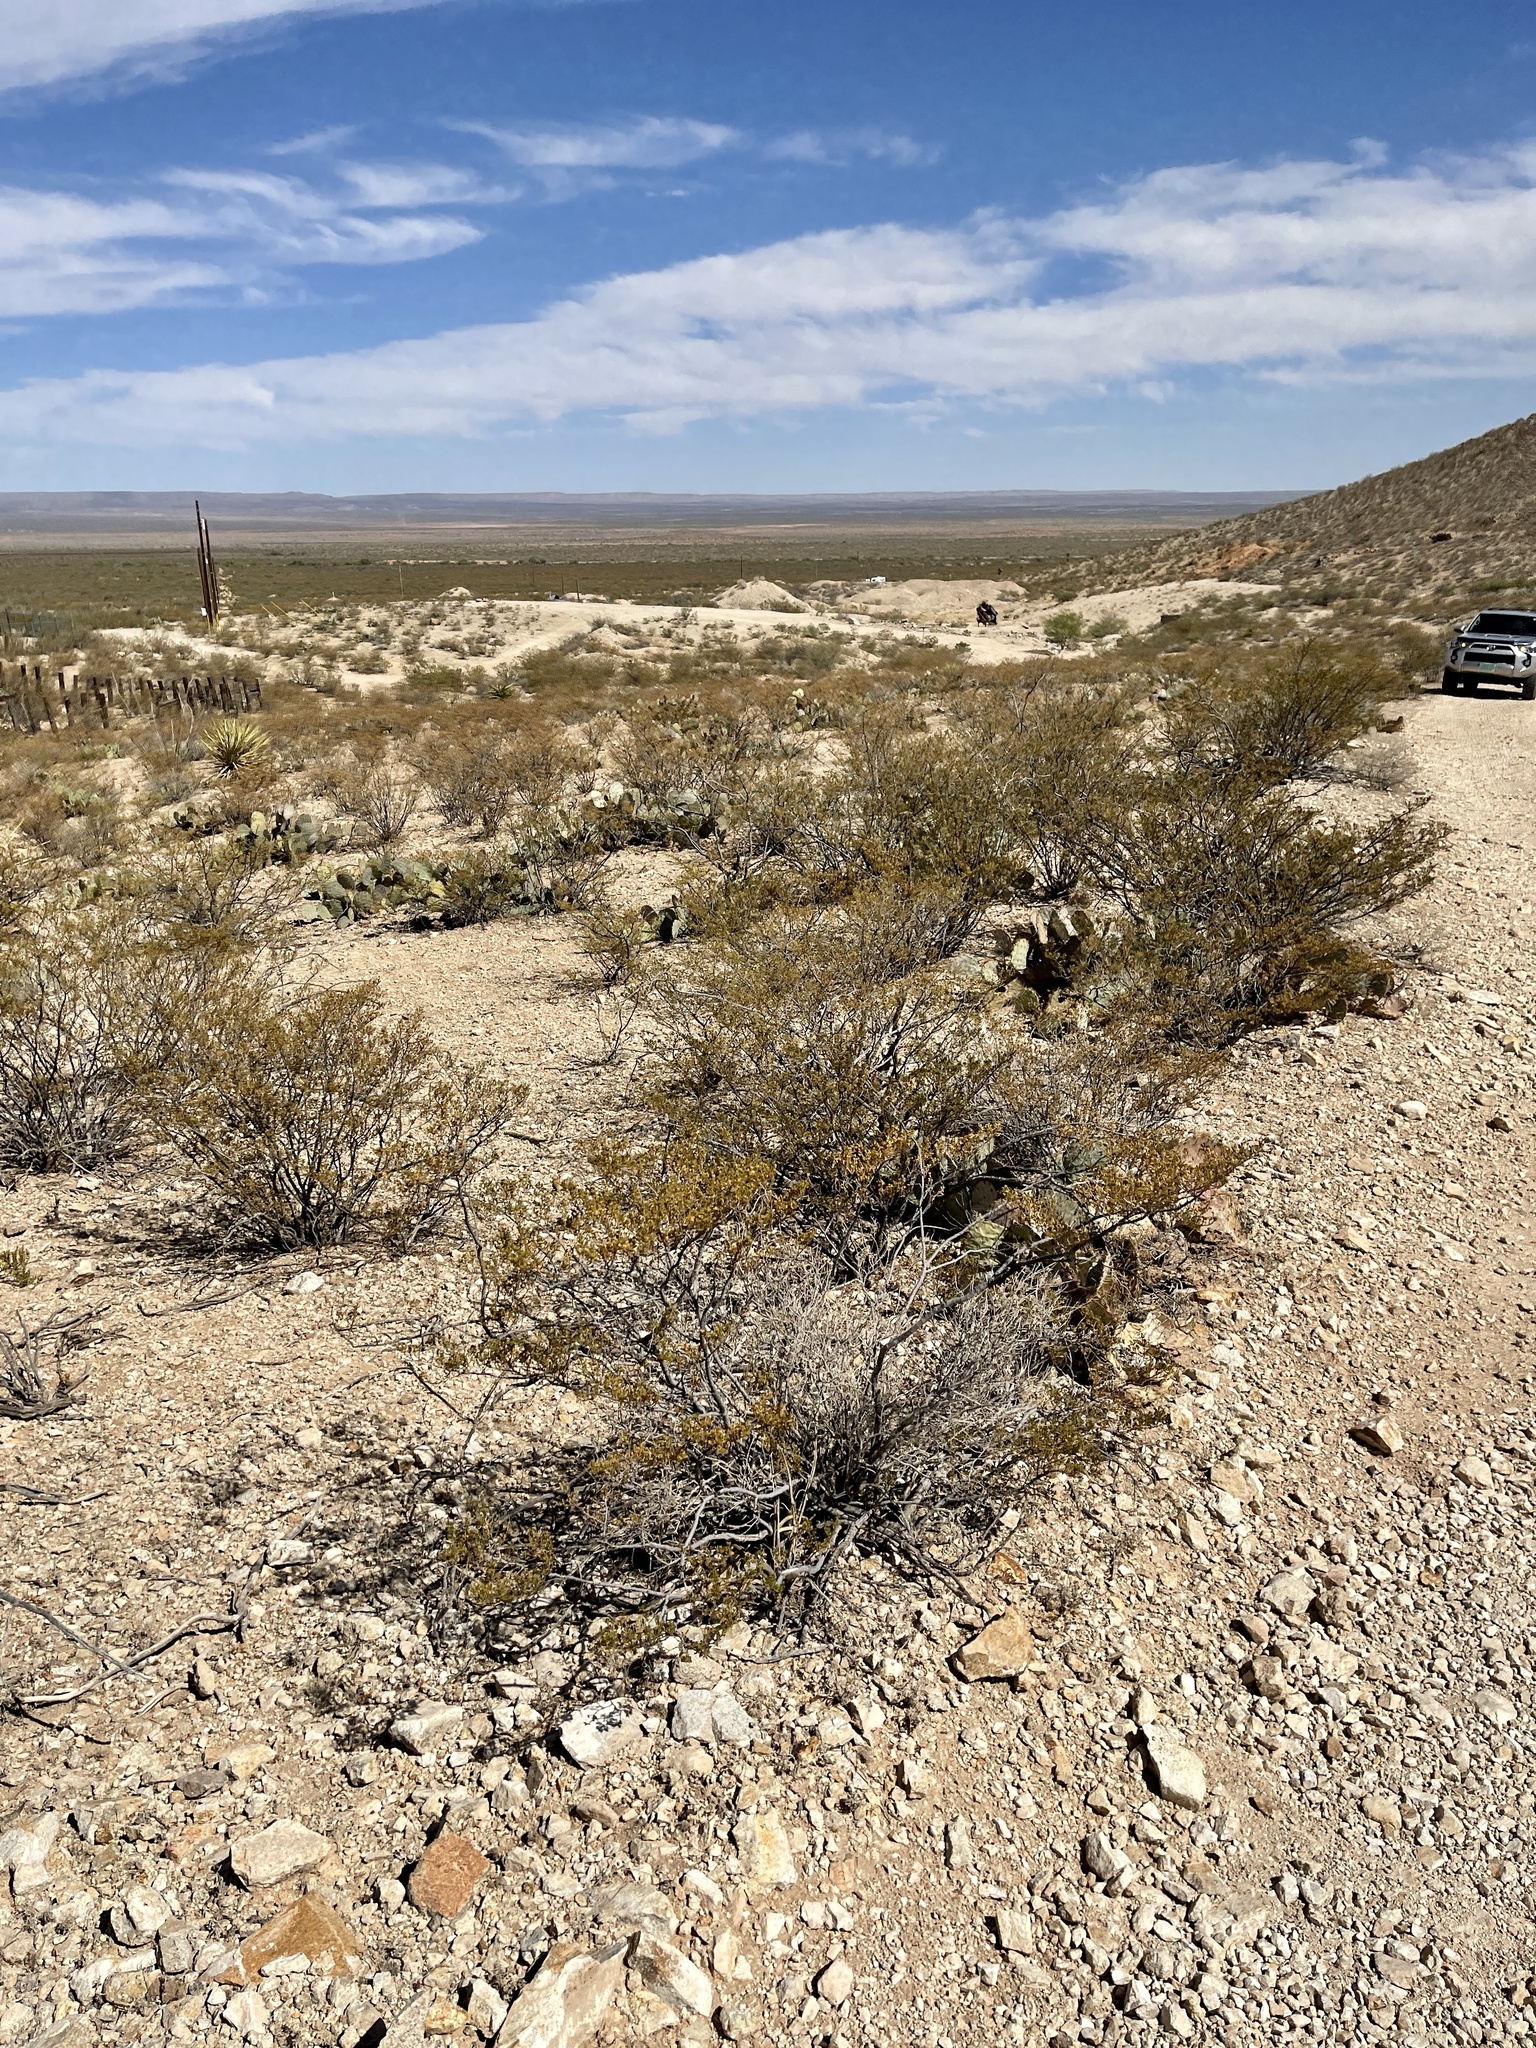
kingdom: Plantae
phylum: Tracheophyta
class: Magnoliopsida
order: Zygophyllales
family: Zygophyllaceae
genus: Larrea
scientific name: Larrea tridentata
